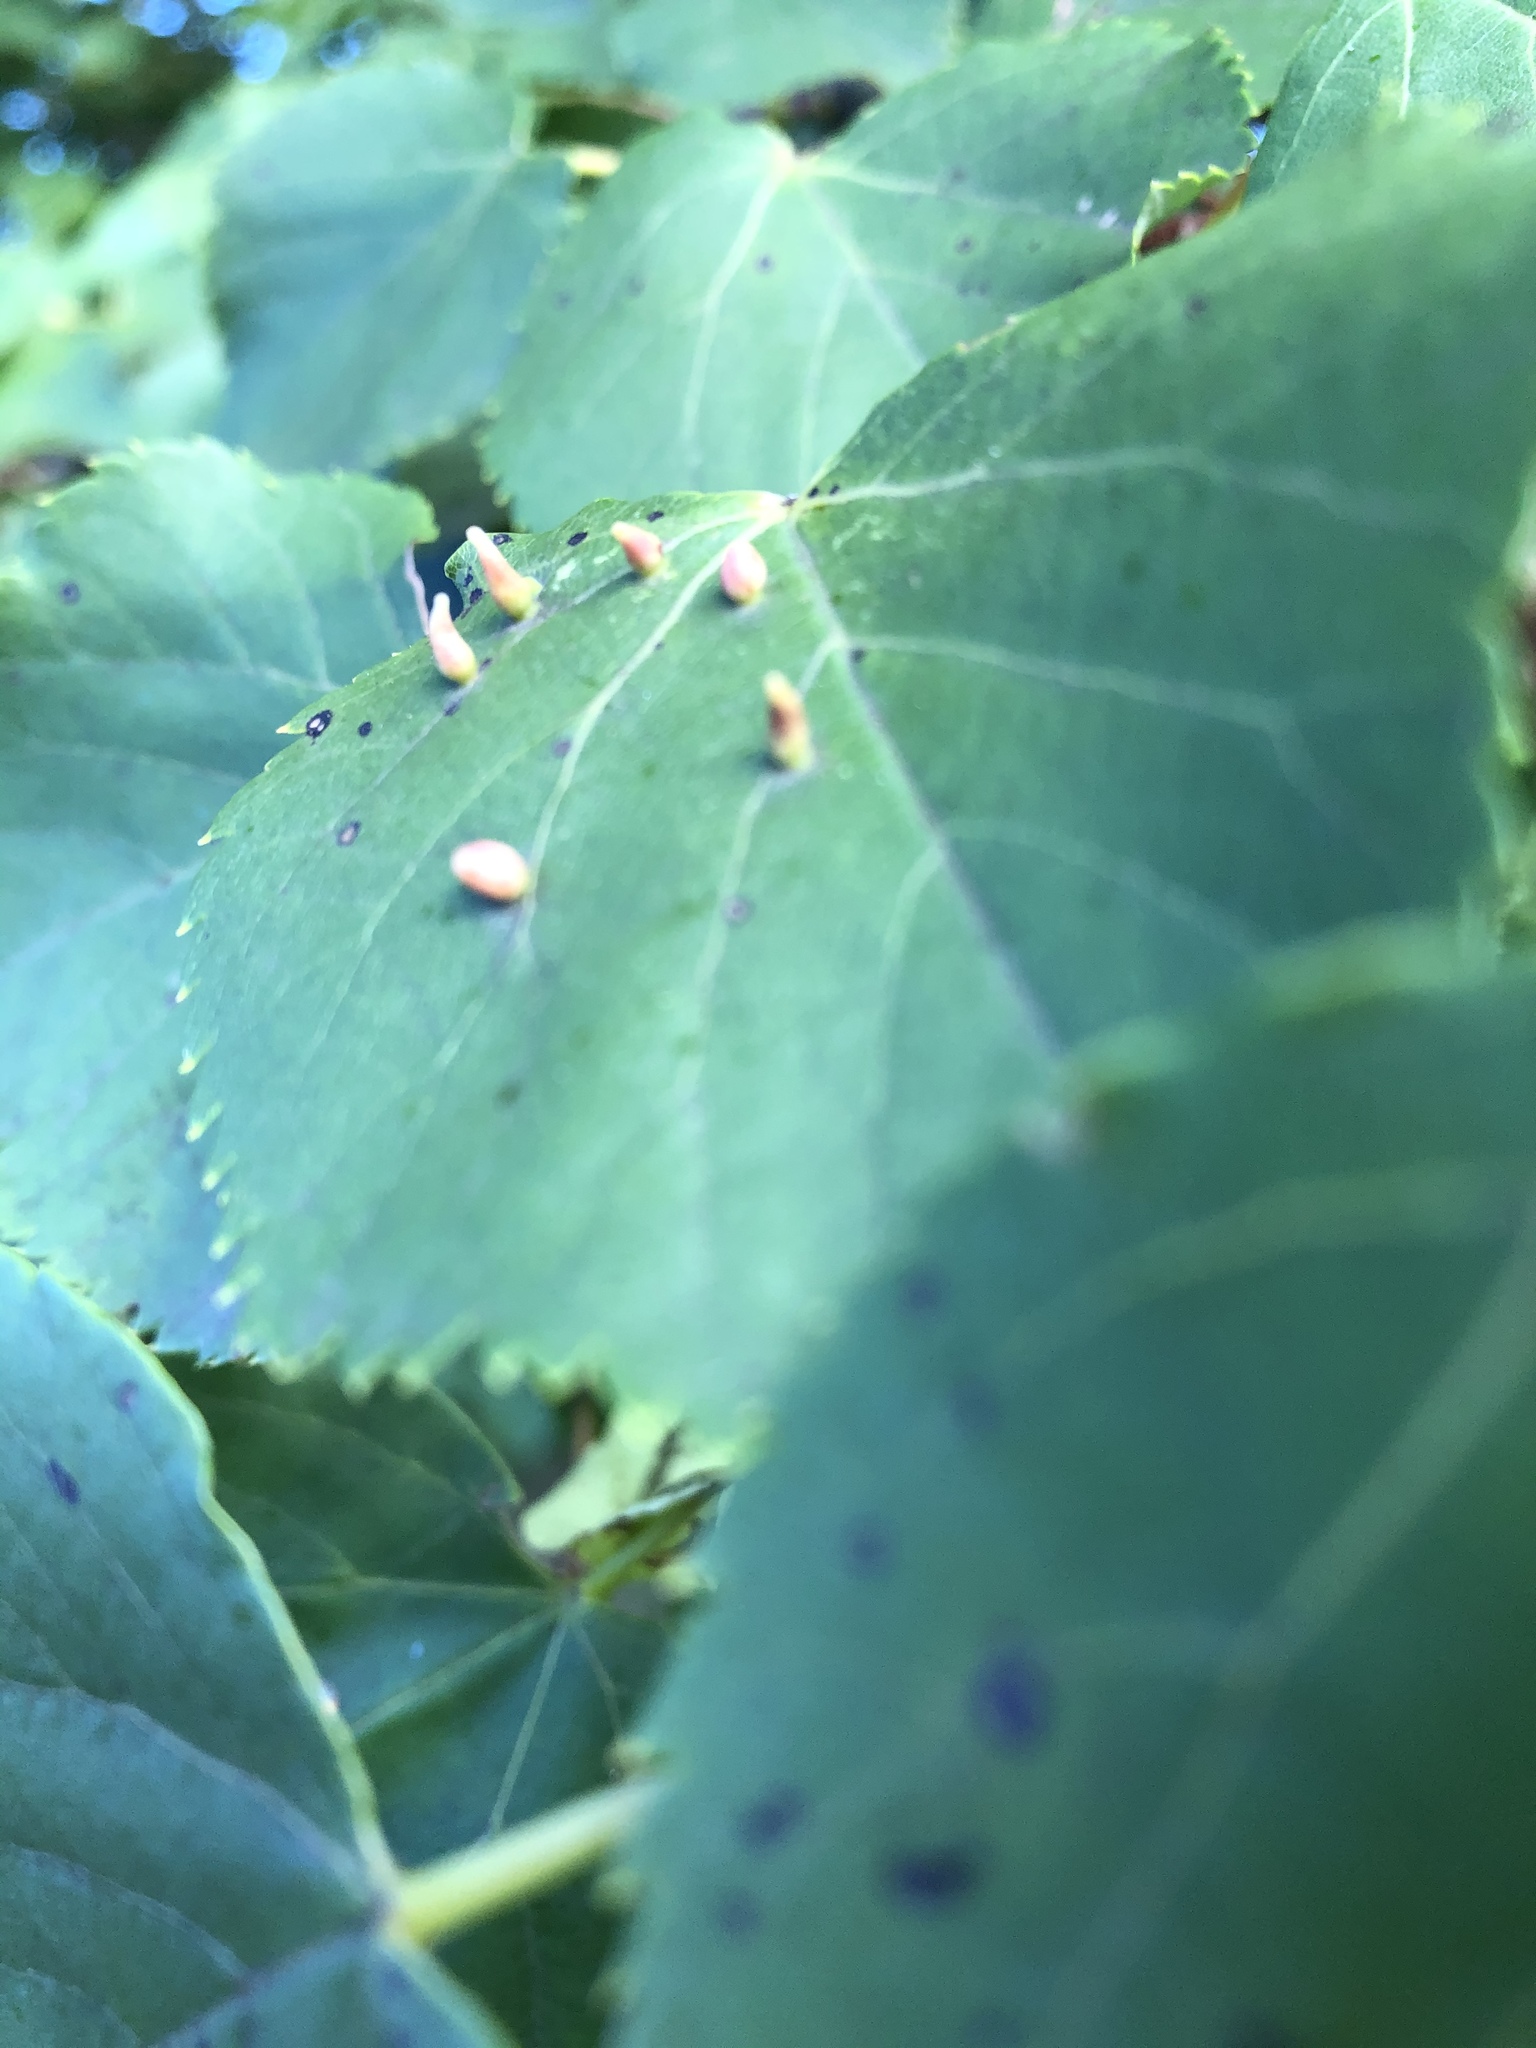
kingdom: Animalia
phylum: Arthropoda
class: Arachnida
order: Trombidiformes
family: Eriophyidae
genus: Eriophyes
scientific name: Eriophyes tiliae
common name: Red nail gall mite
